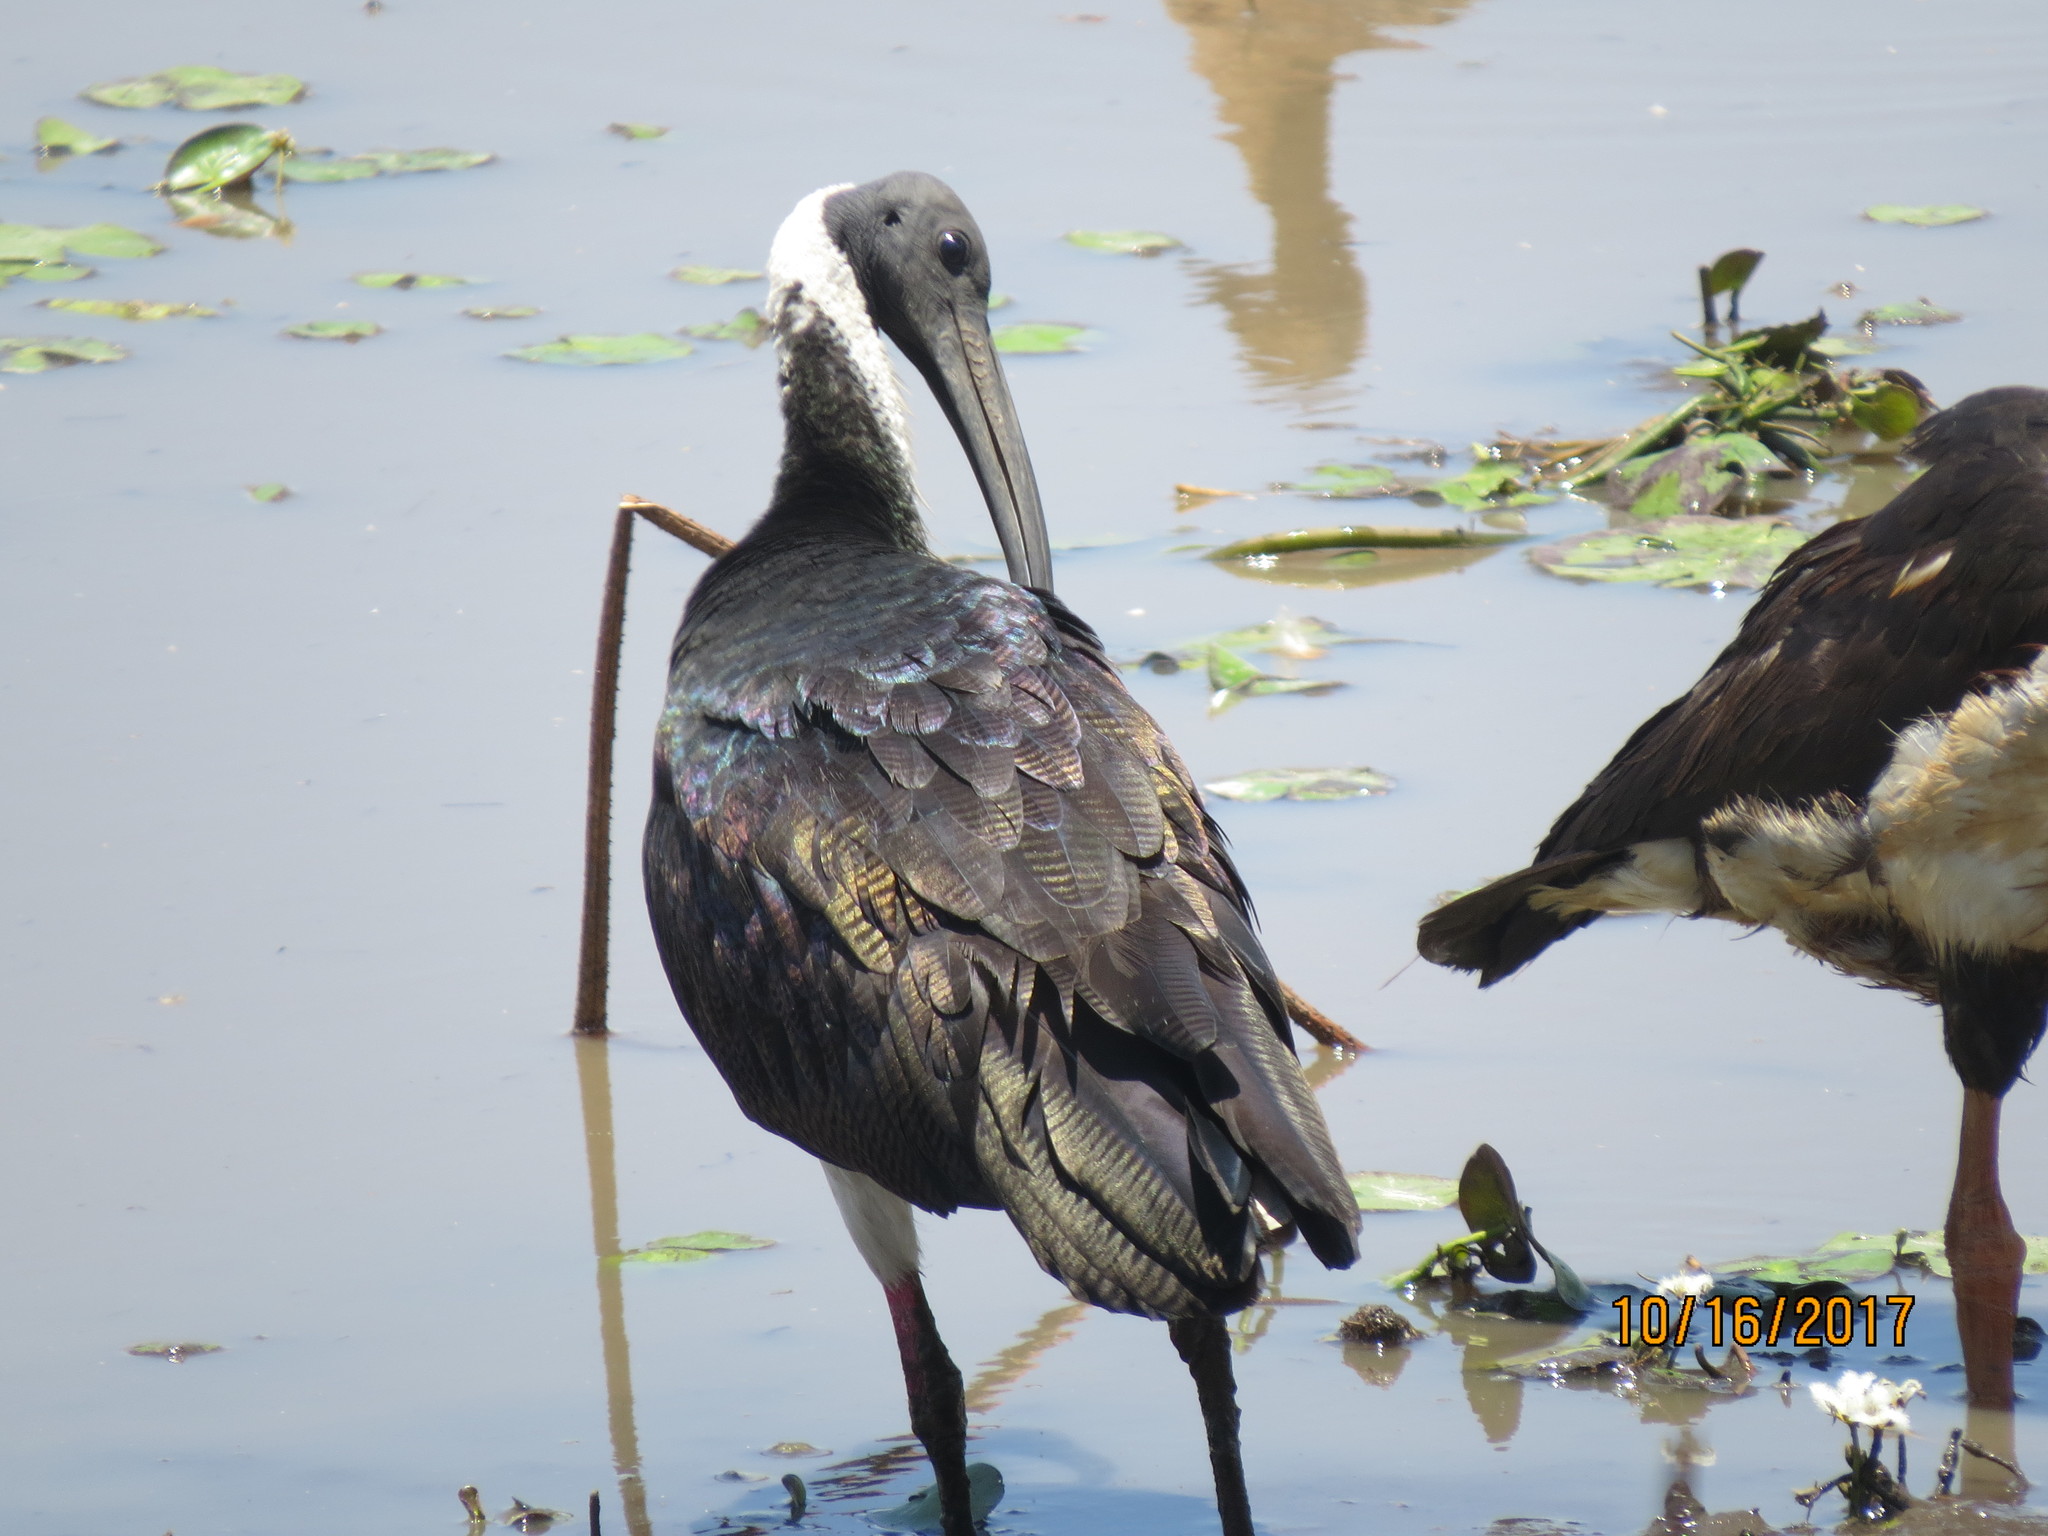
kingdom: Animalia
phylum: Chordata
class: Aves
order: Pelecaniformes
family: Threskiornithidae
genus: Threskiornis
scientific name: Threskiornis spinicollis
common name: Straw-necked ibis
